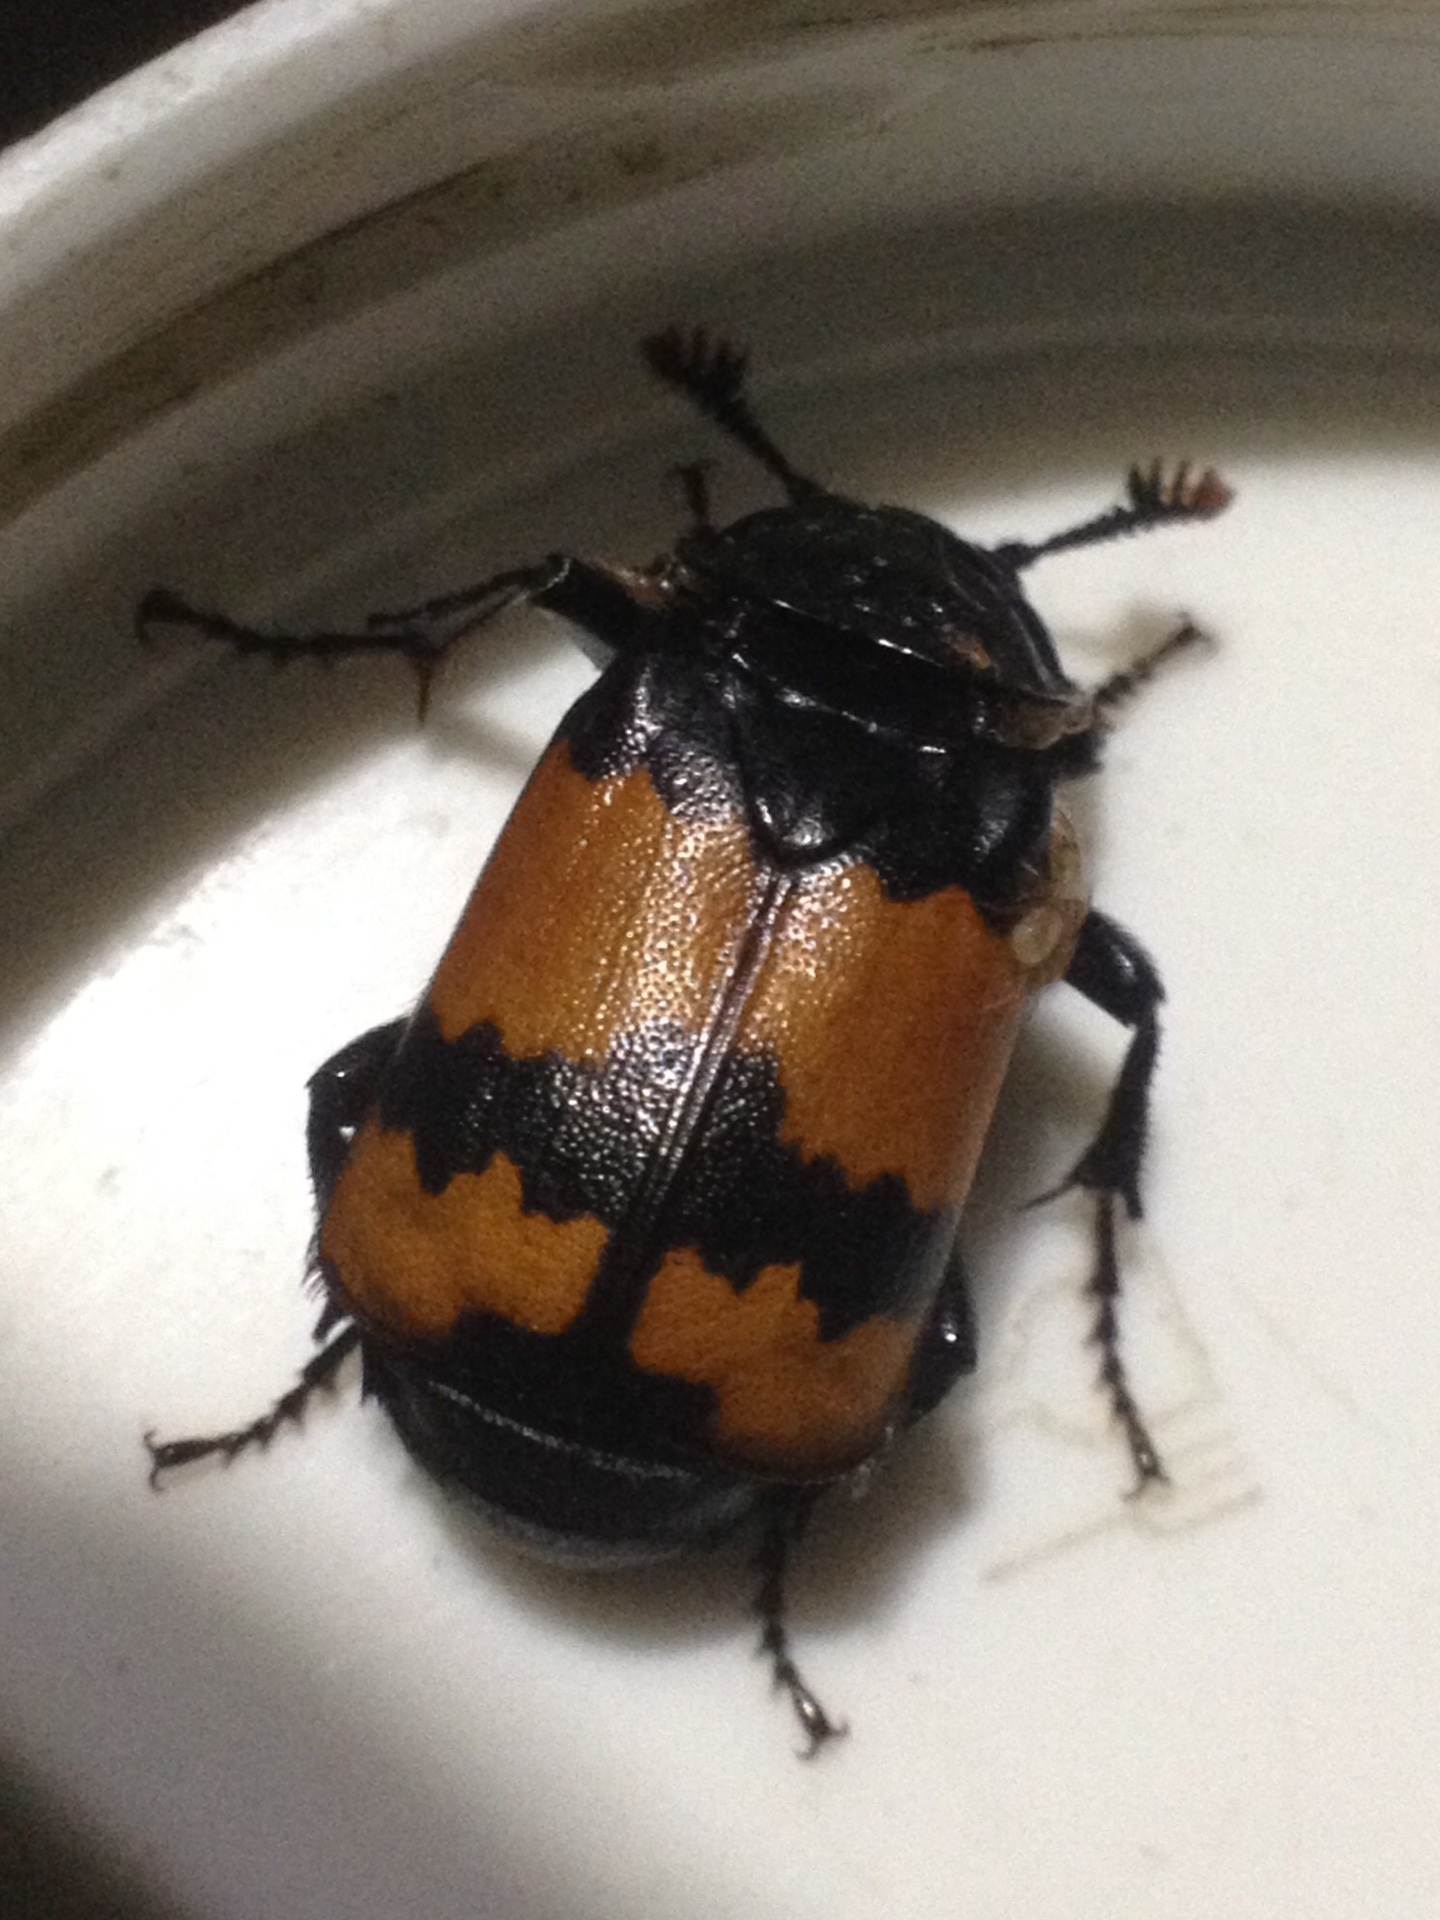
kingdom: Animalia
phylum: Arthropoda
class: Insecta
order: Coleoptera
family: Staphylinidae
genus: Nicrophorus
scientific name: Nicrophorus investigator
